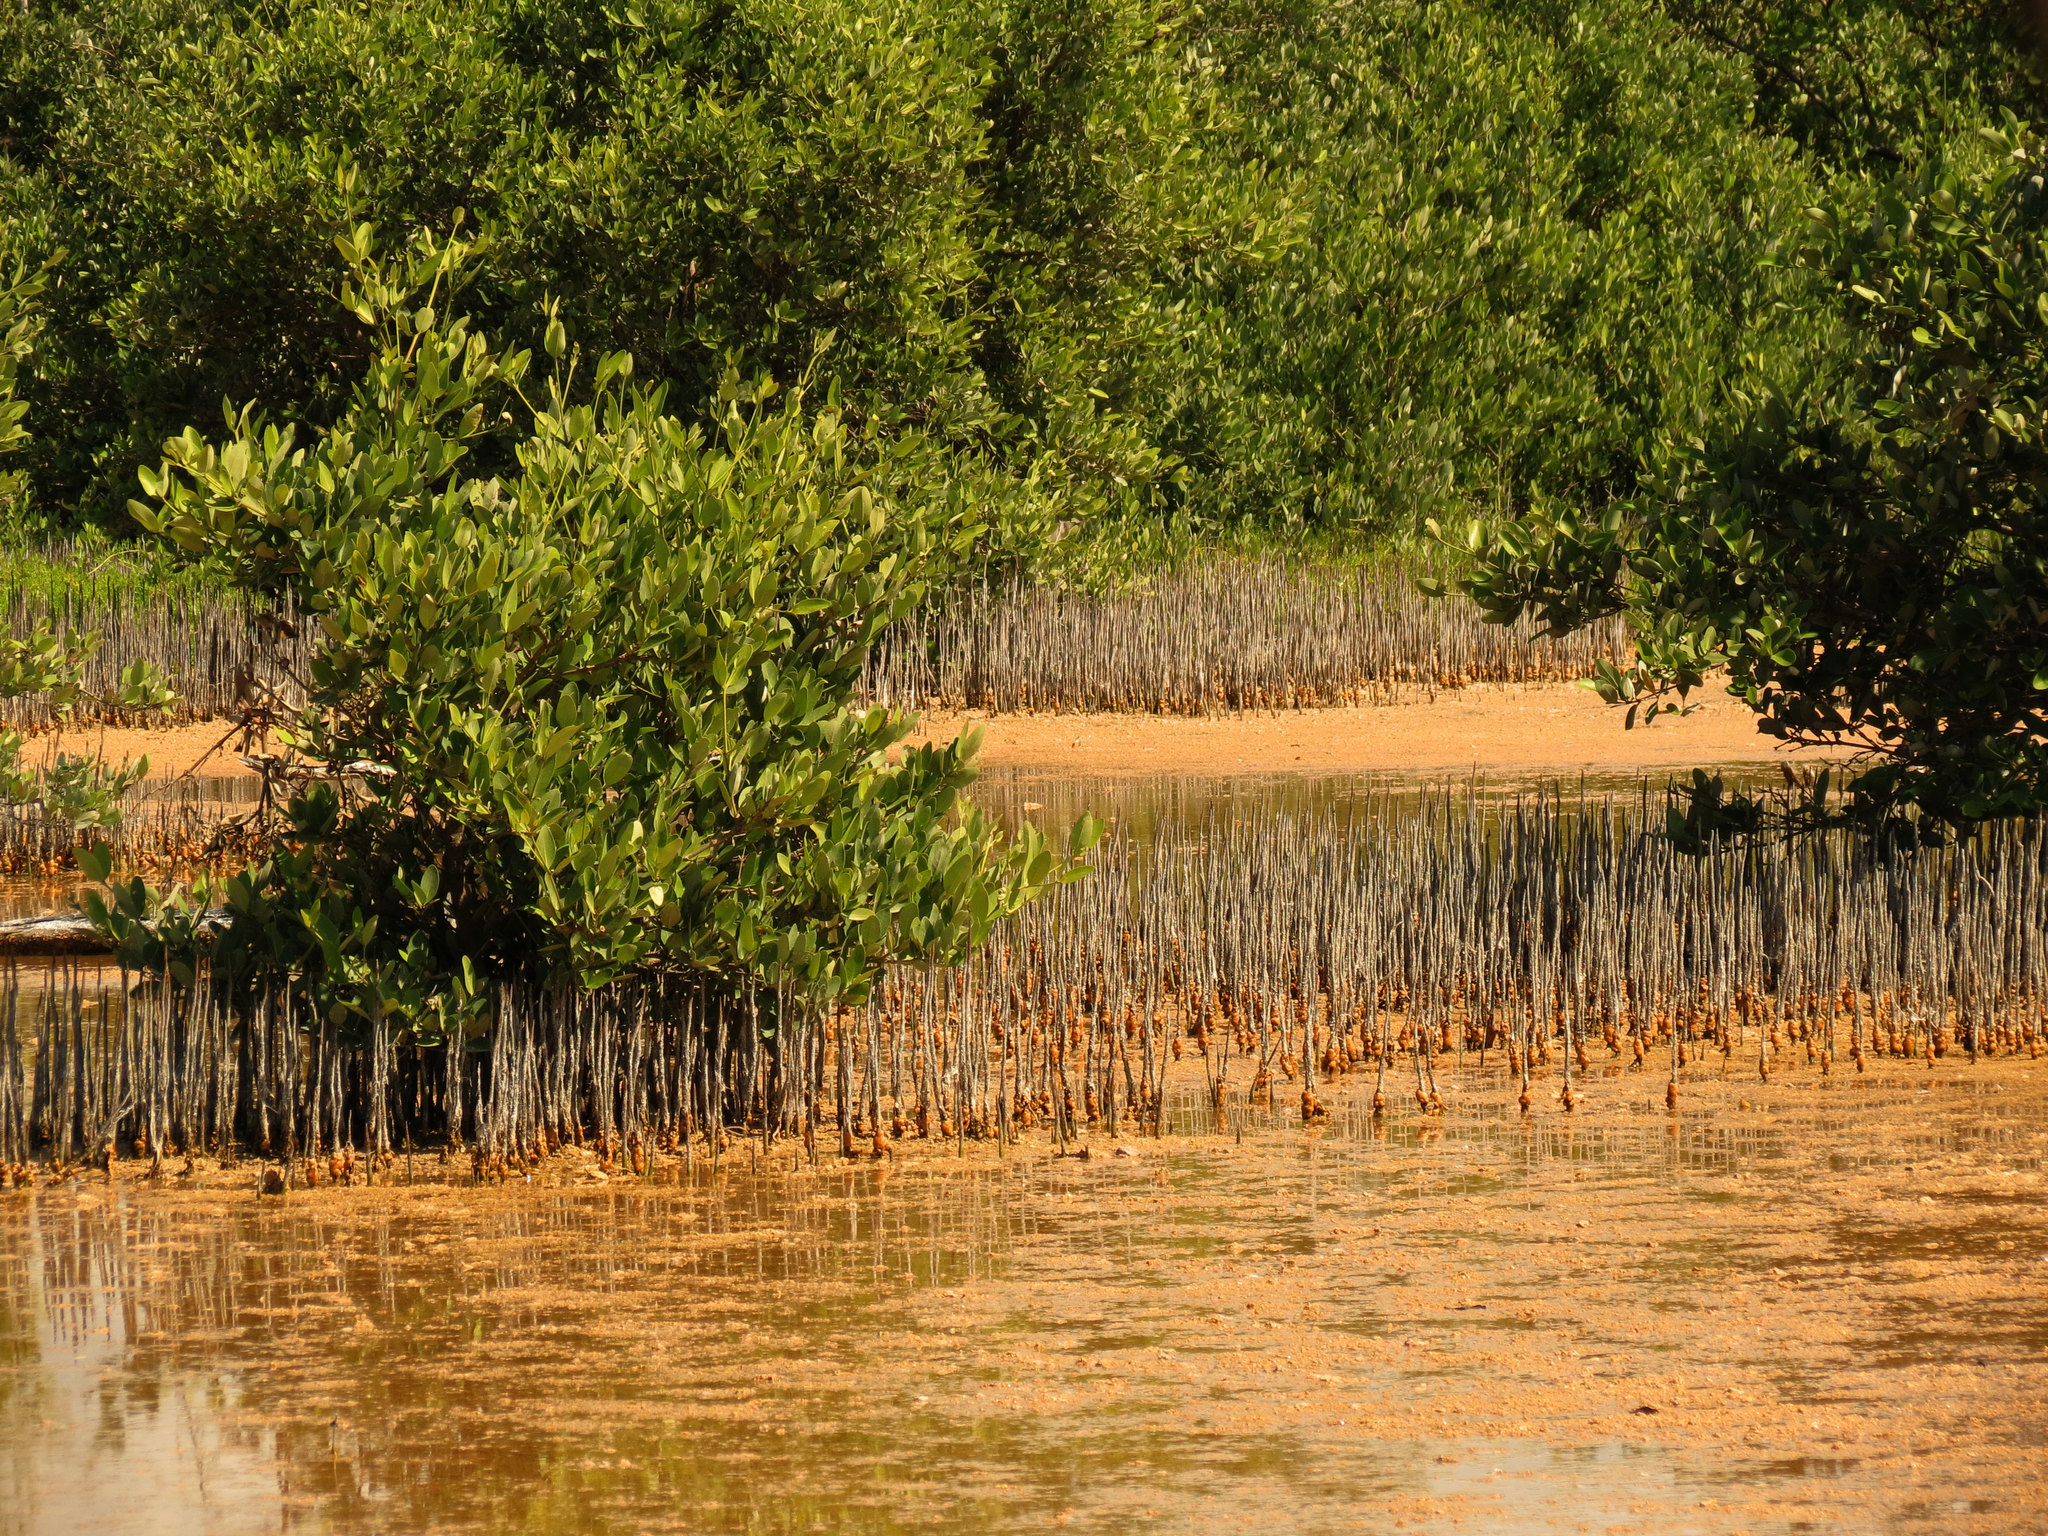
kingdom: Plantae
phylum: Tracheophyta
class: Magnoliopsida
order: Lamiales
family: Acanthaceae
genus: Avicennia
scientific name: Avicennia germinans
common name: Black mangrove
